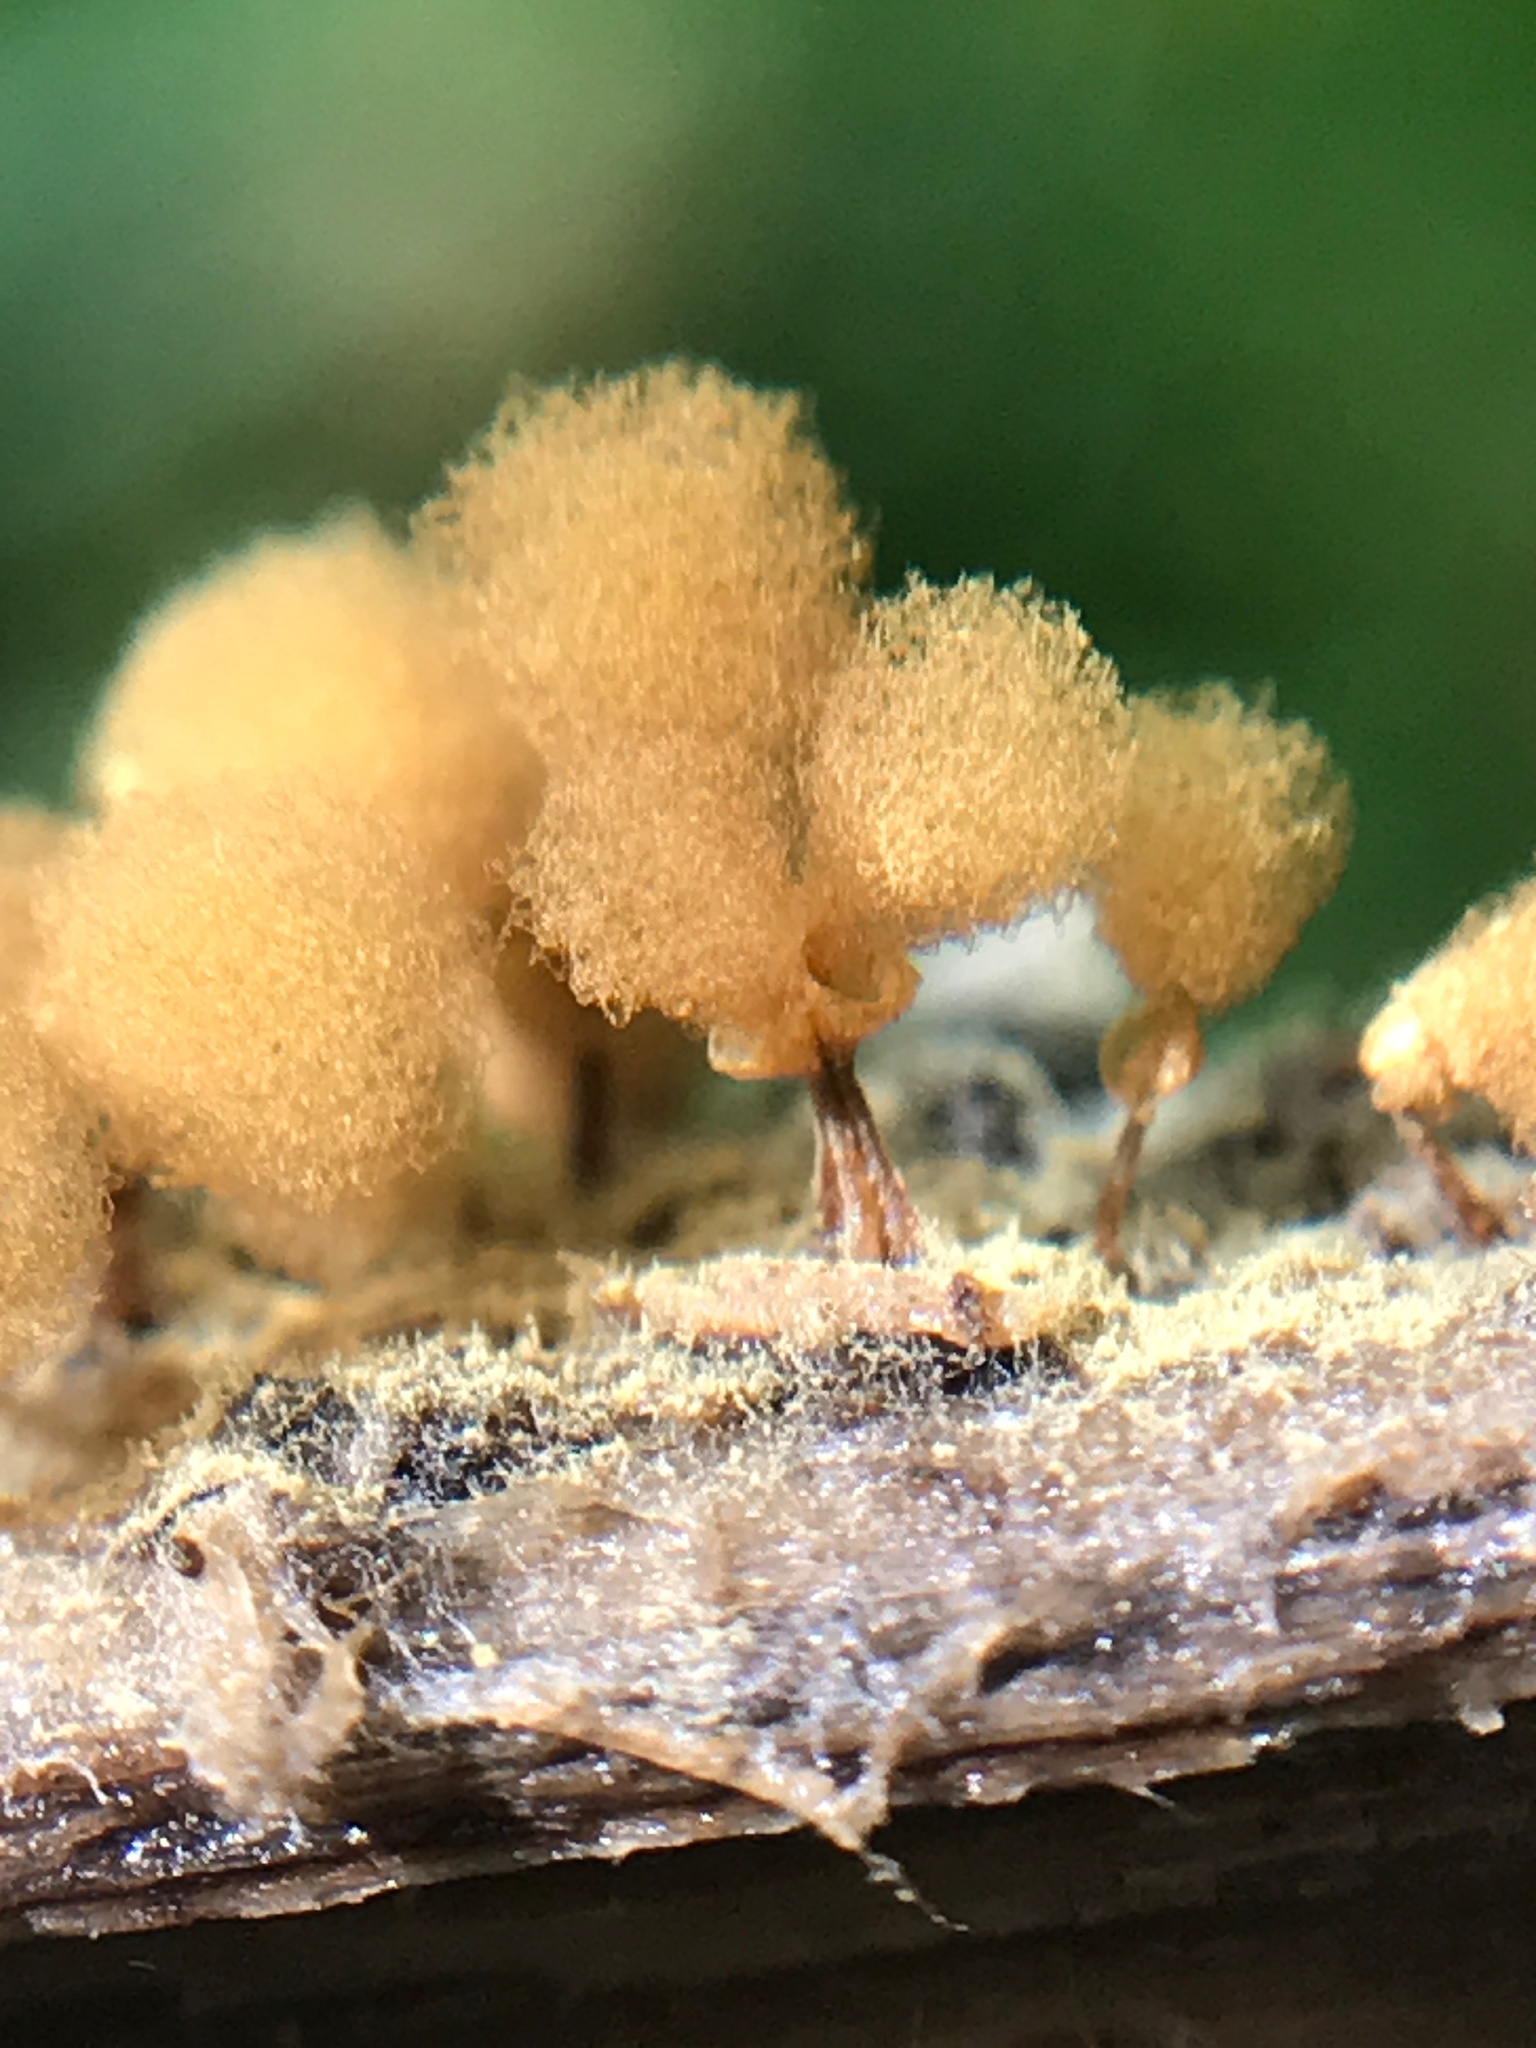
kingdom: Protozoa
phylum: Mycetozoa
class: Myxomycetes
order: Trichiales
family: Arcyriaceae
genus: Hemitrichia
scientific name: Hemitrichia calyculata
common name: Push pin slime mold
